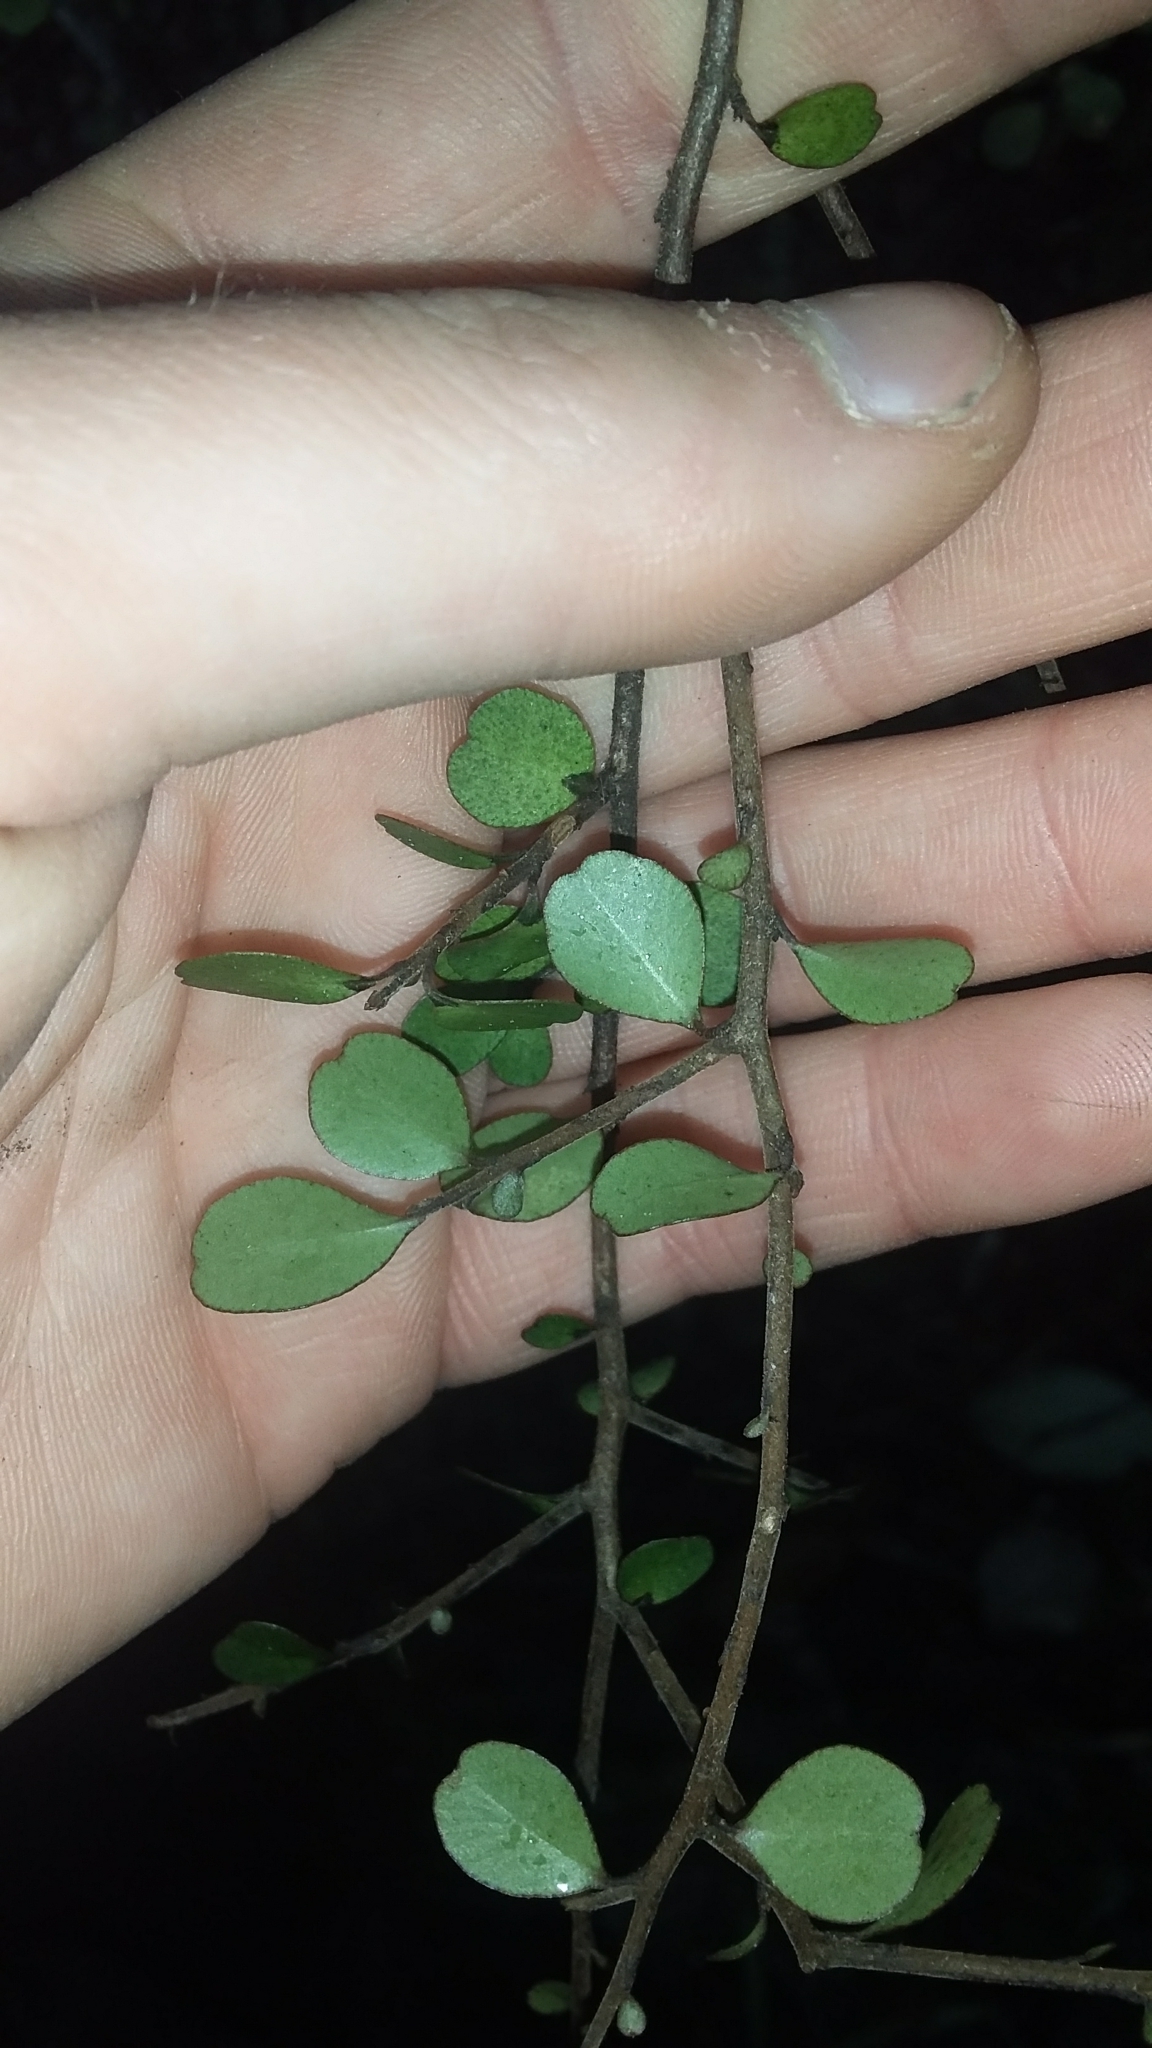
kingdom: Plantae
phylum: Tracheophyta
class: Magnoliopsida
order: Ericales
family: Primulaceae
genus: Myrsine
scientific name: Myrsine divaricata
